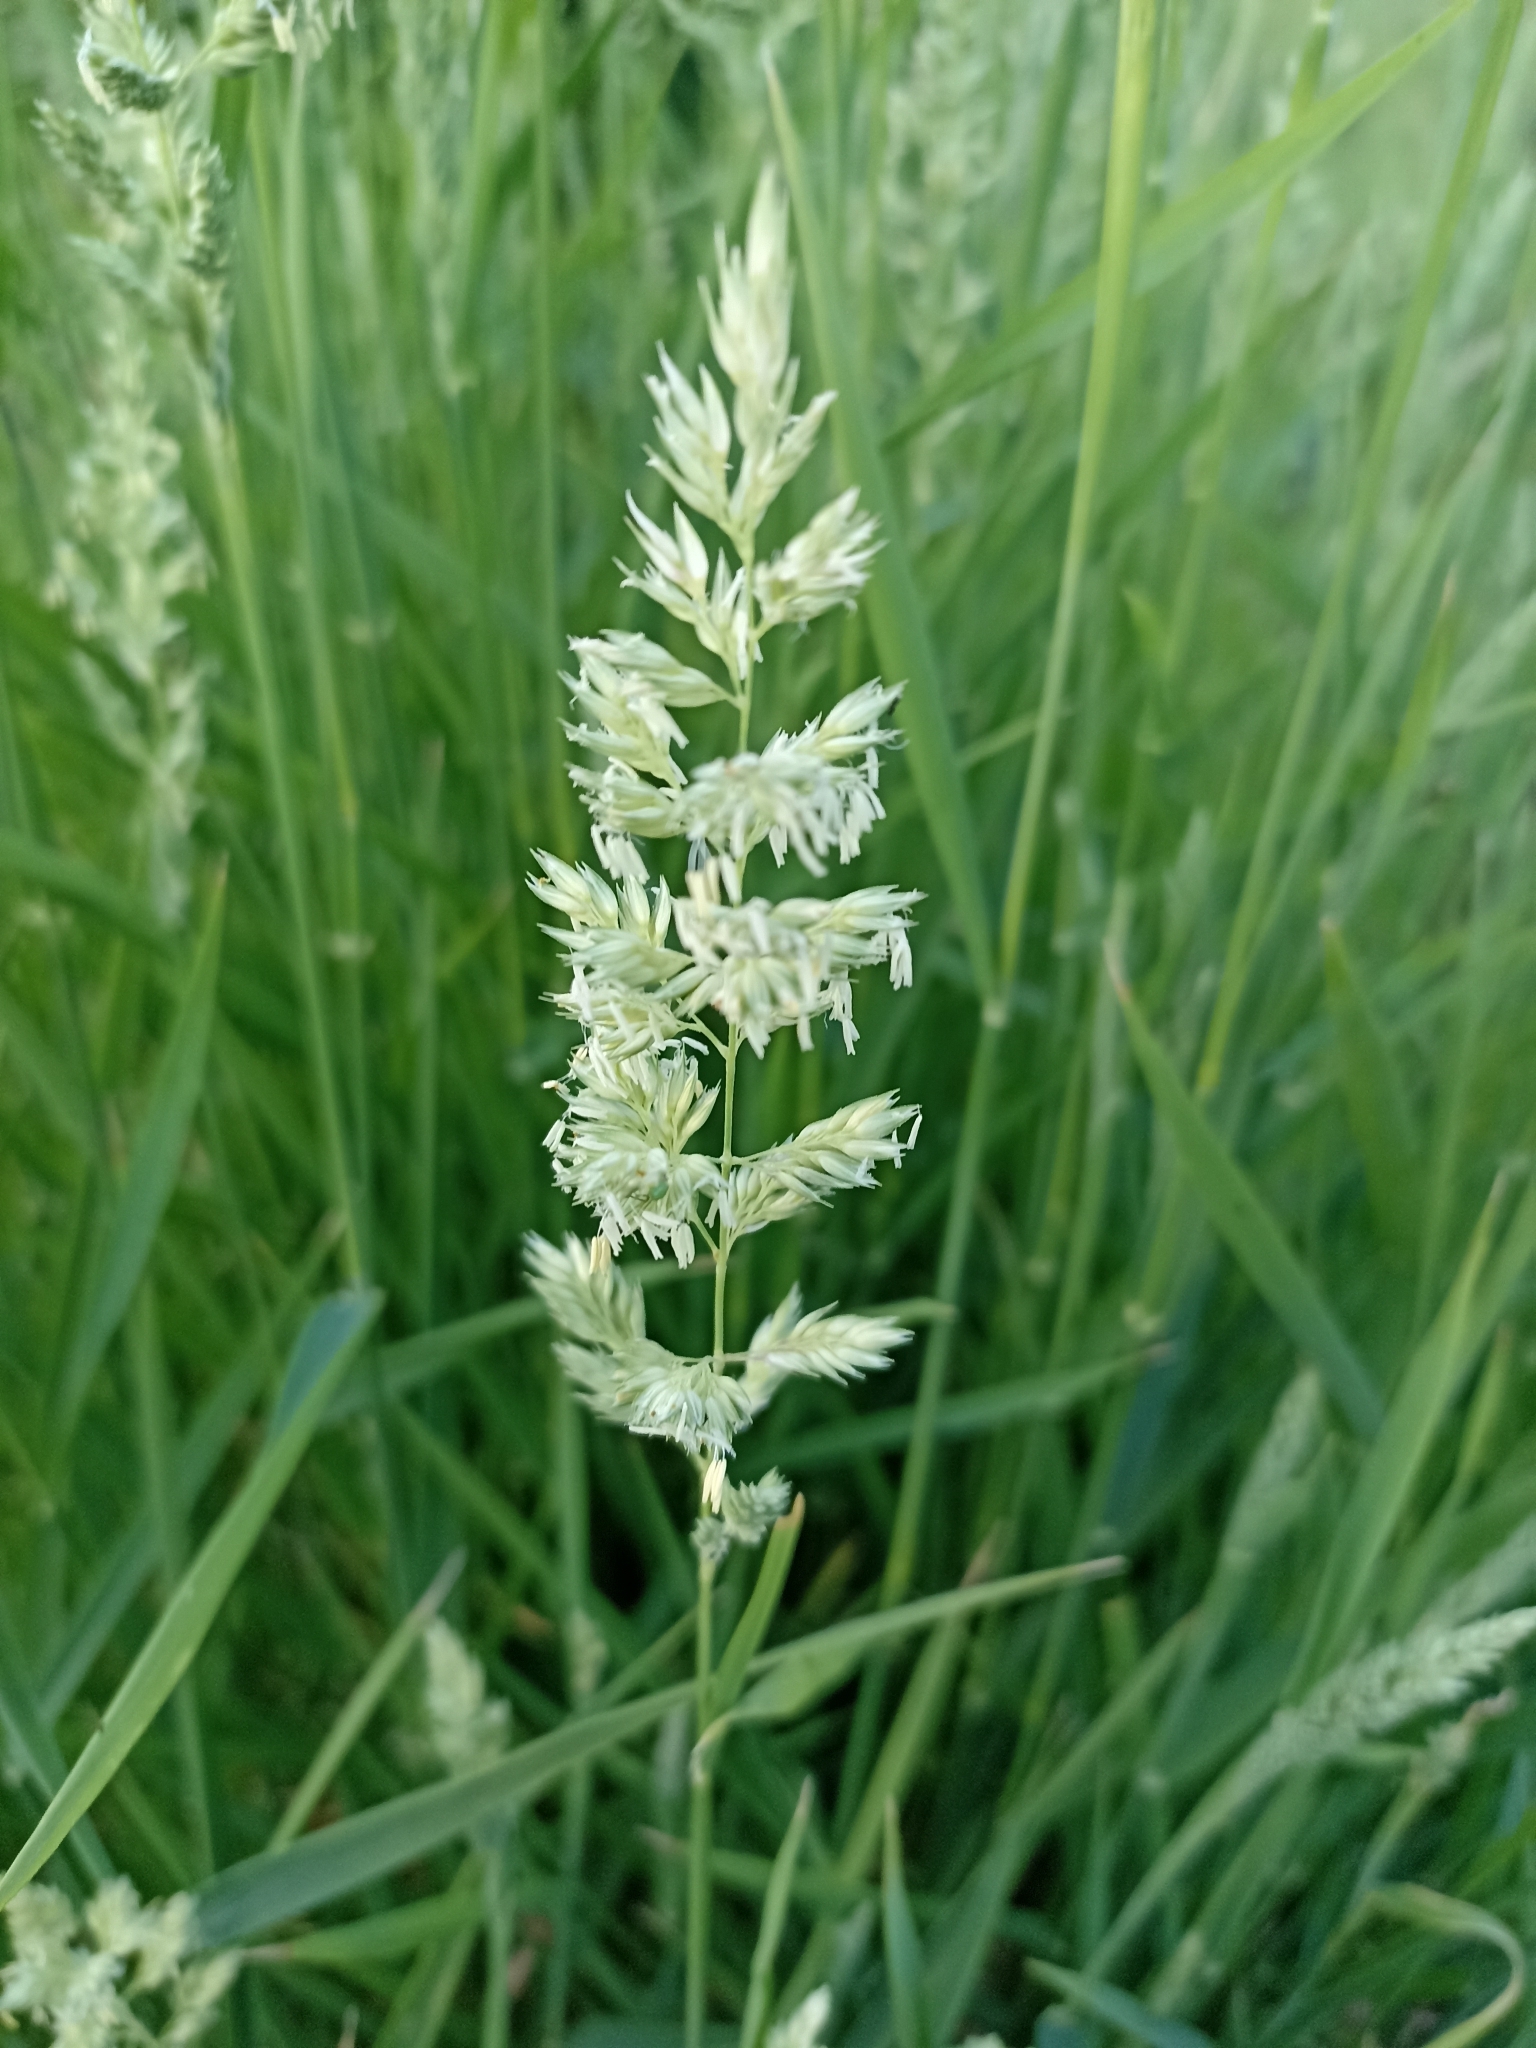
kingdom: Plantae
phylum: Tracheophyta
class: Liliopsida
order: Poales
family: Poaceae
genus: Phalaris
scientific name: Phalaris arundinacea
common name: Reed canary-grass
